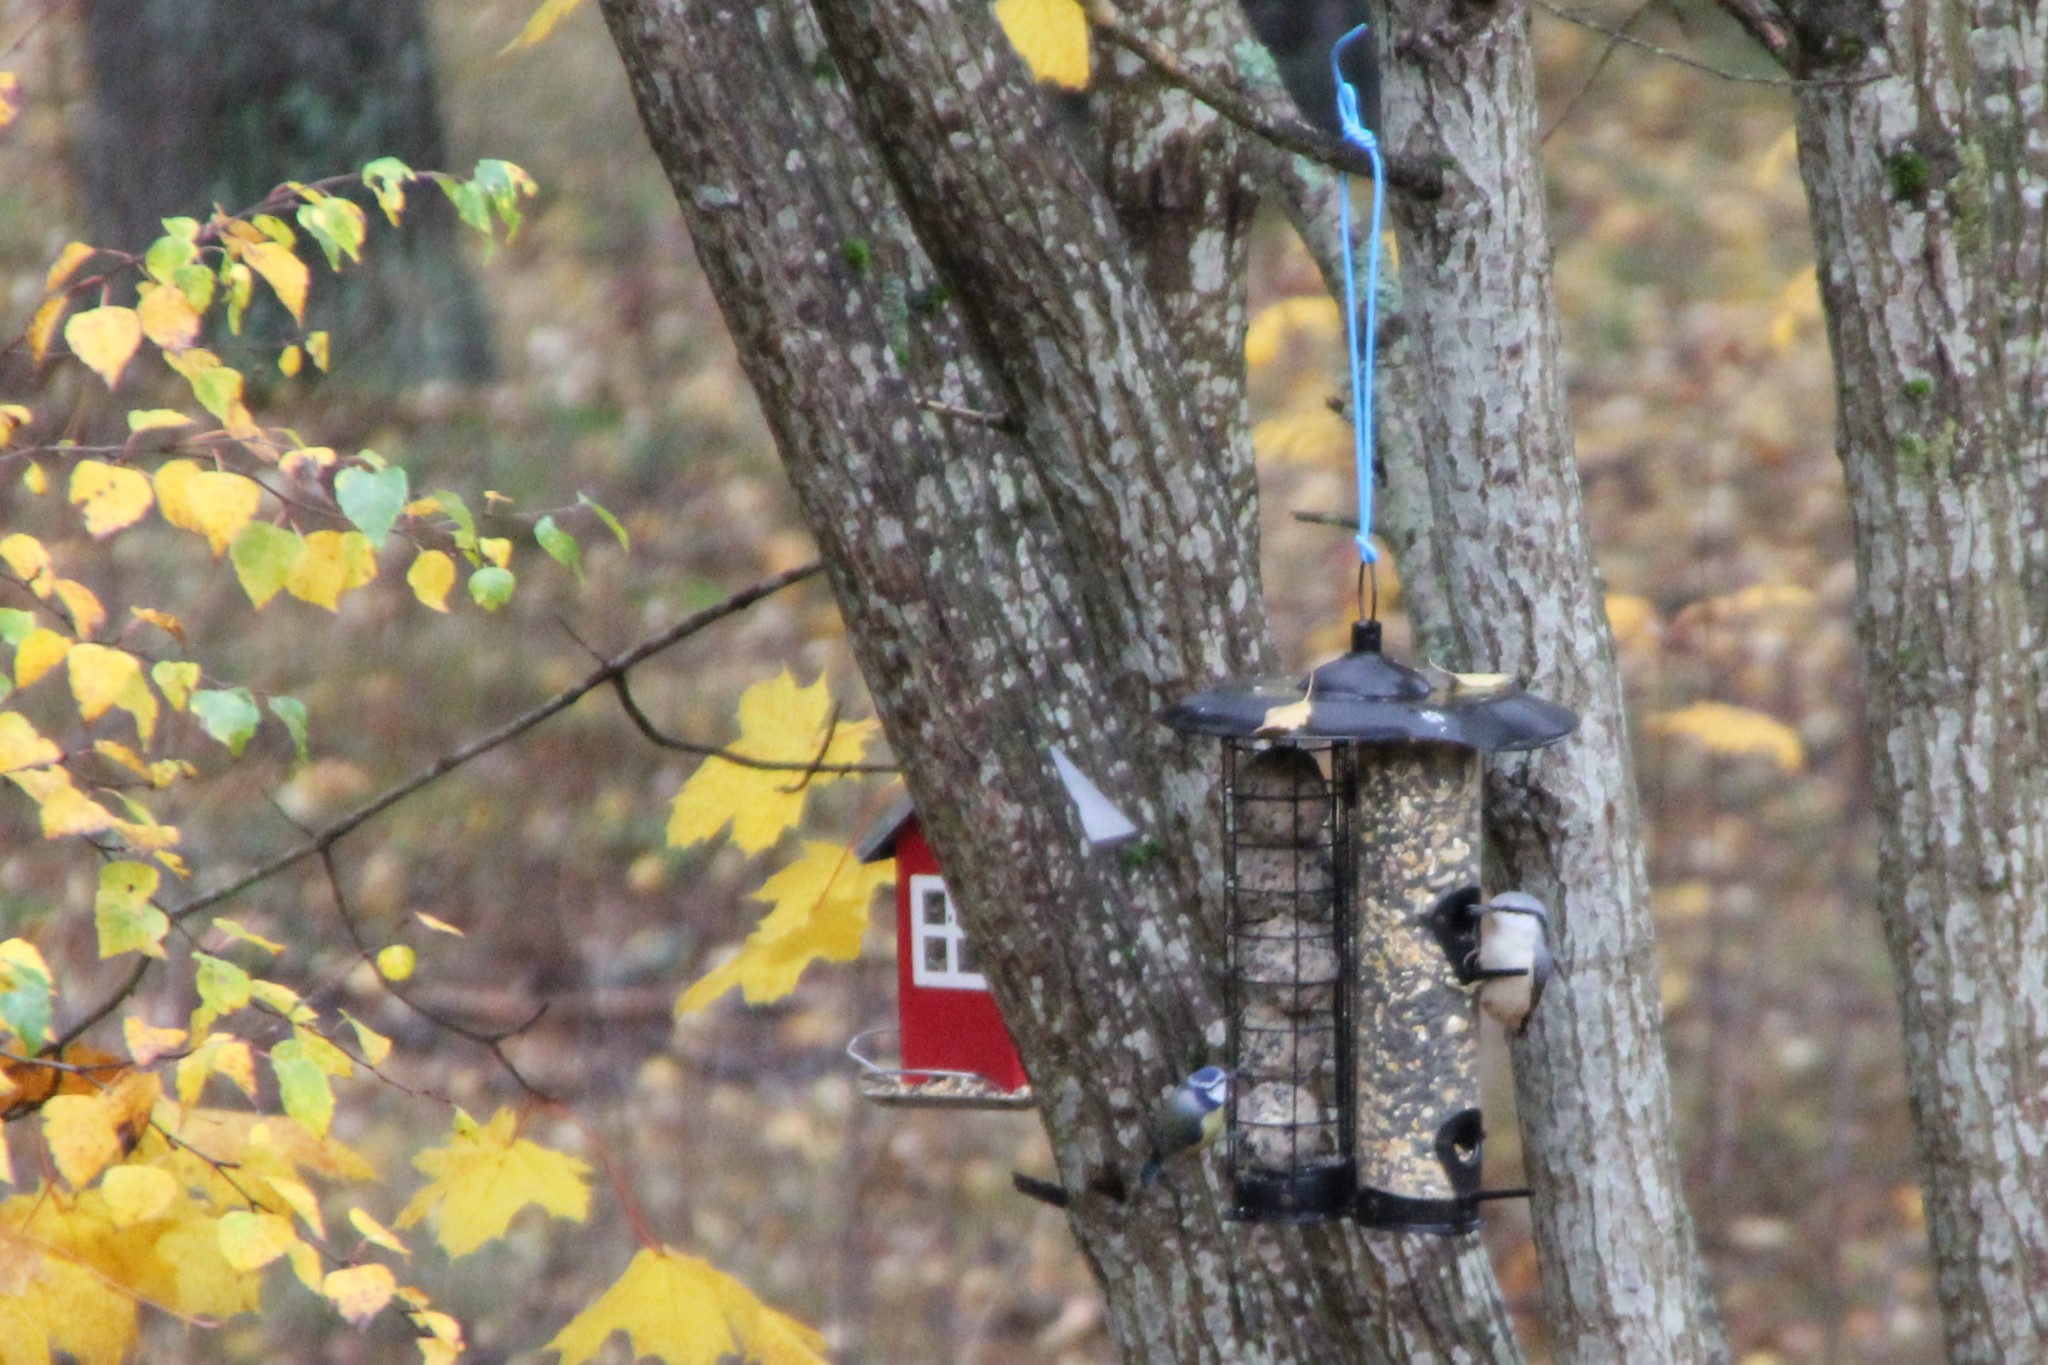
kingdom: Animalia
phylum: Chordata
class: Aves
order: Passeriformes
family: Sittidae
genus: Sitta
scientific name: Sitta europaea
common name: Eurasian nuthatch
